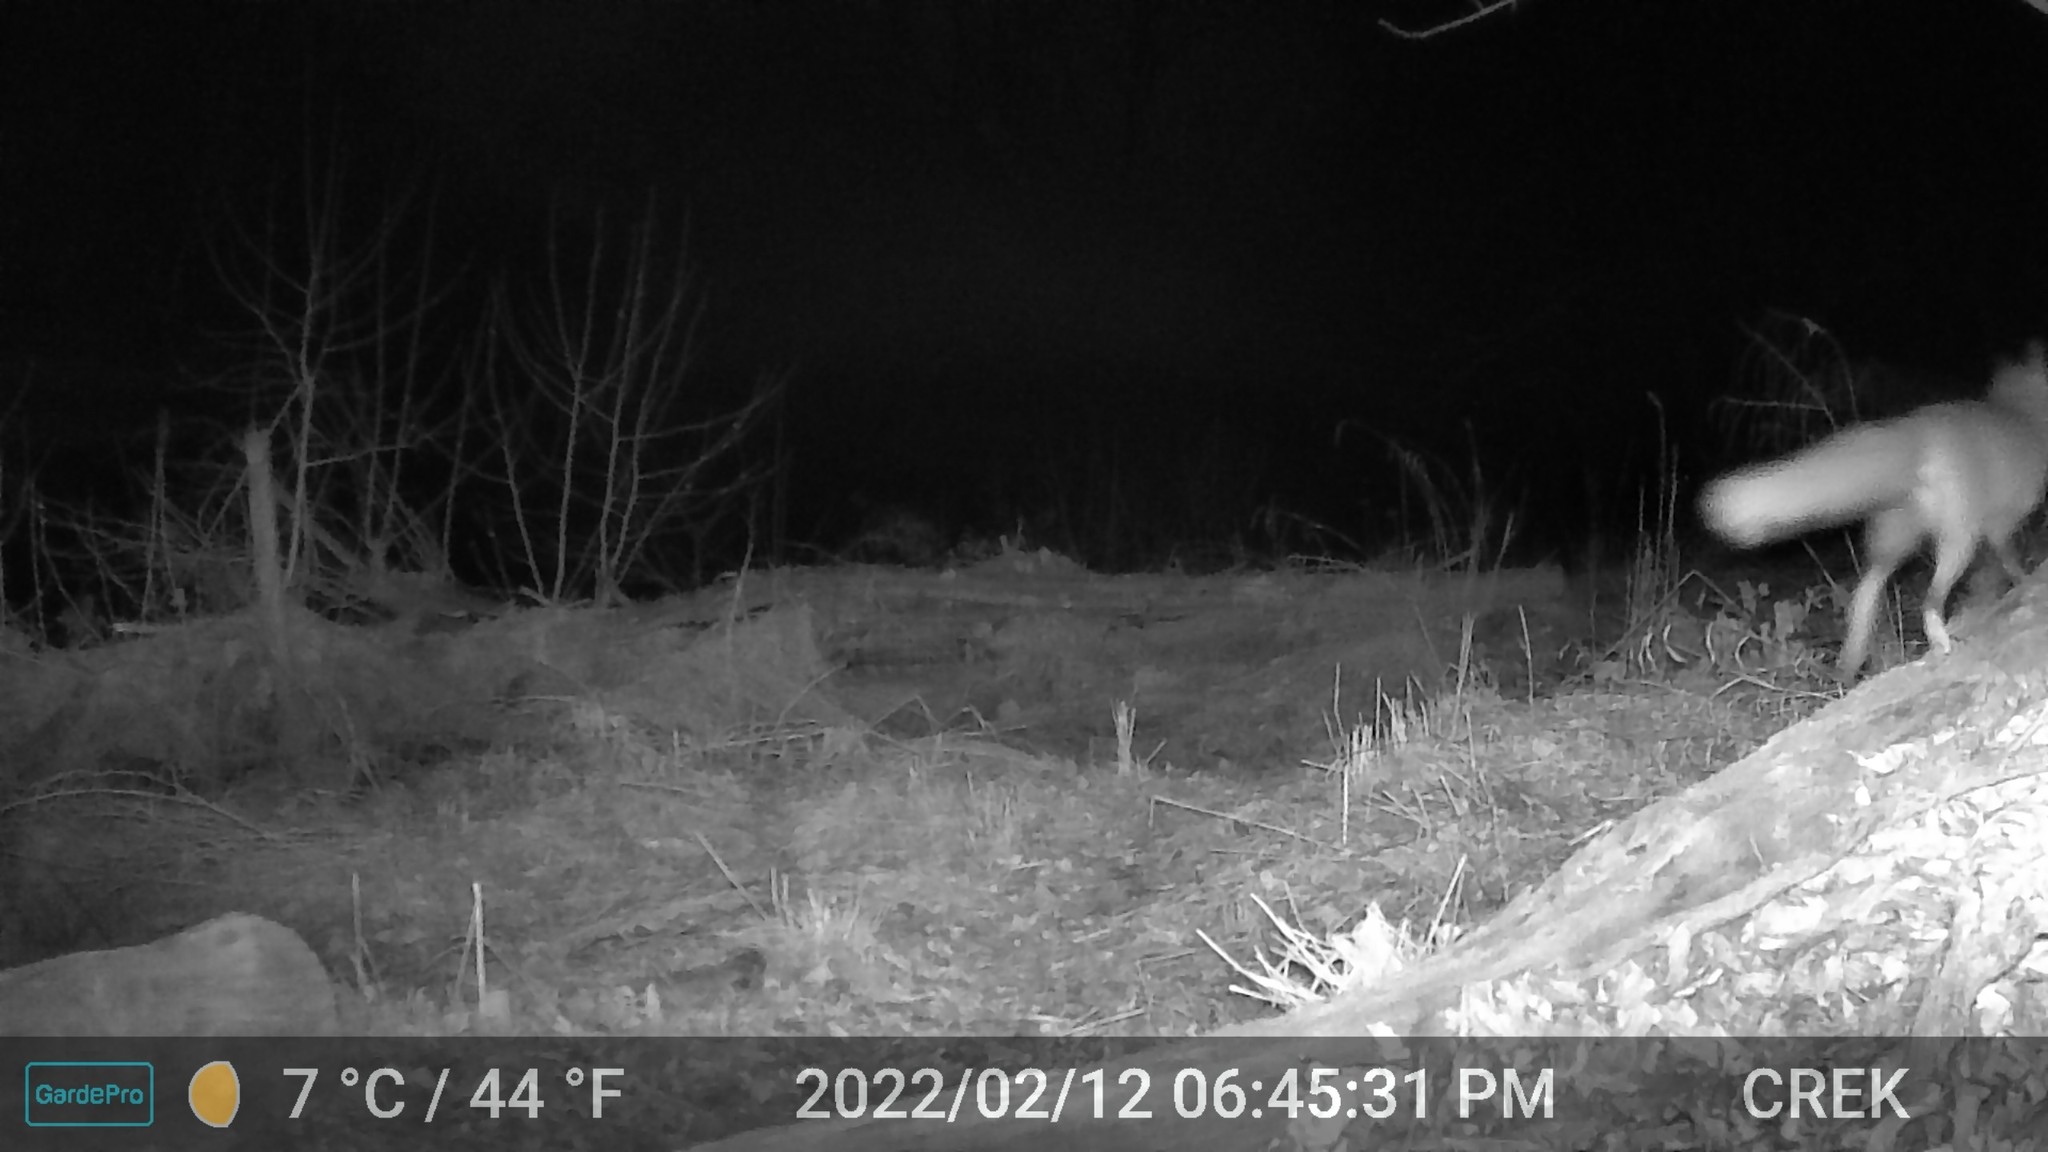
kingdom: Animalia
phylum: Chordata
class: Mammalia
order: Carnivora
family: Canidae
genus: Vulpes
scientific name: Vulpes vulpes
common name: Red fox
